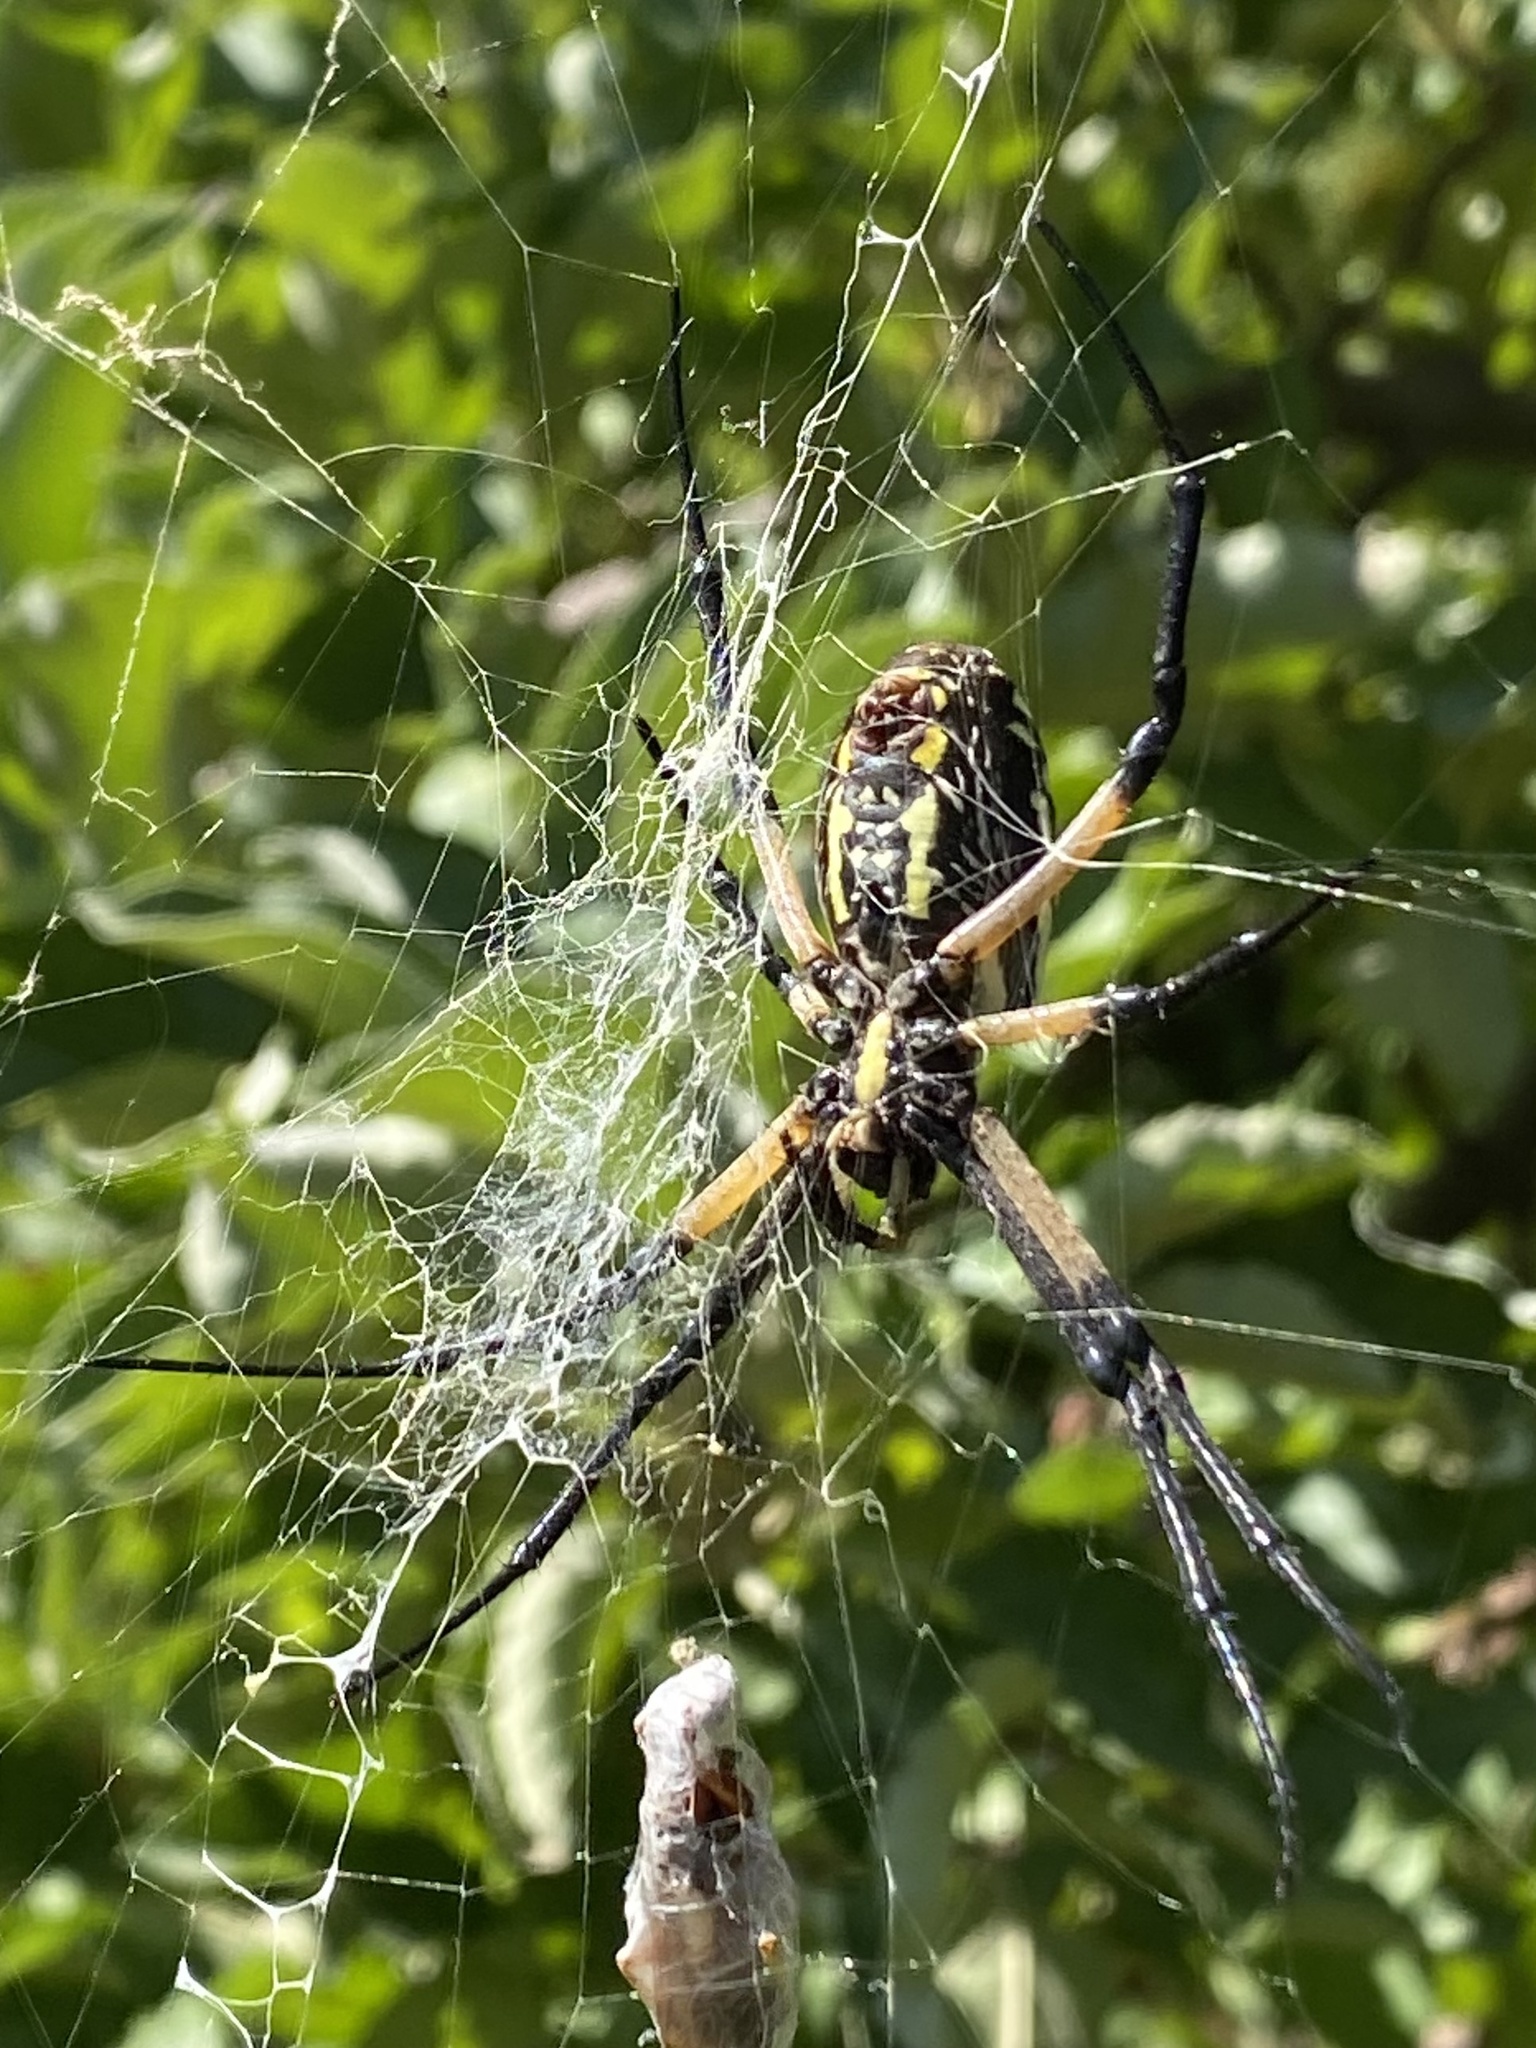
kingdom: Animalia
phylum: Arthropoda
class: Arachnida
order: Araneae
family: Araneidae
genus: Argiope
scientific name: Argiope aurantia
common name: Orb weavers
